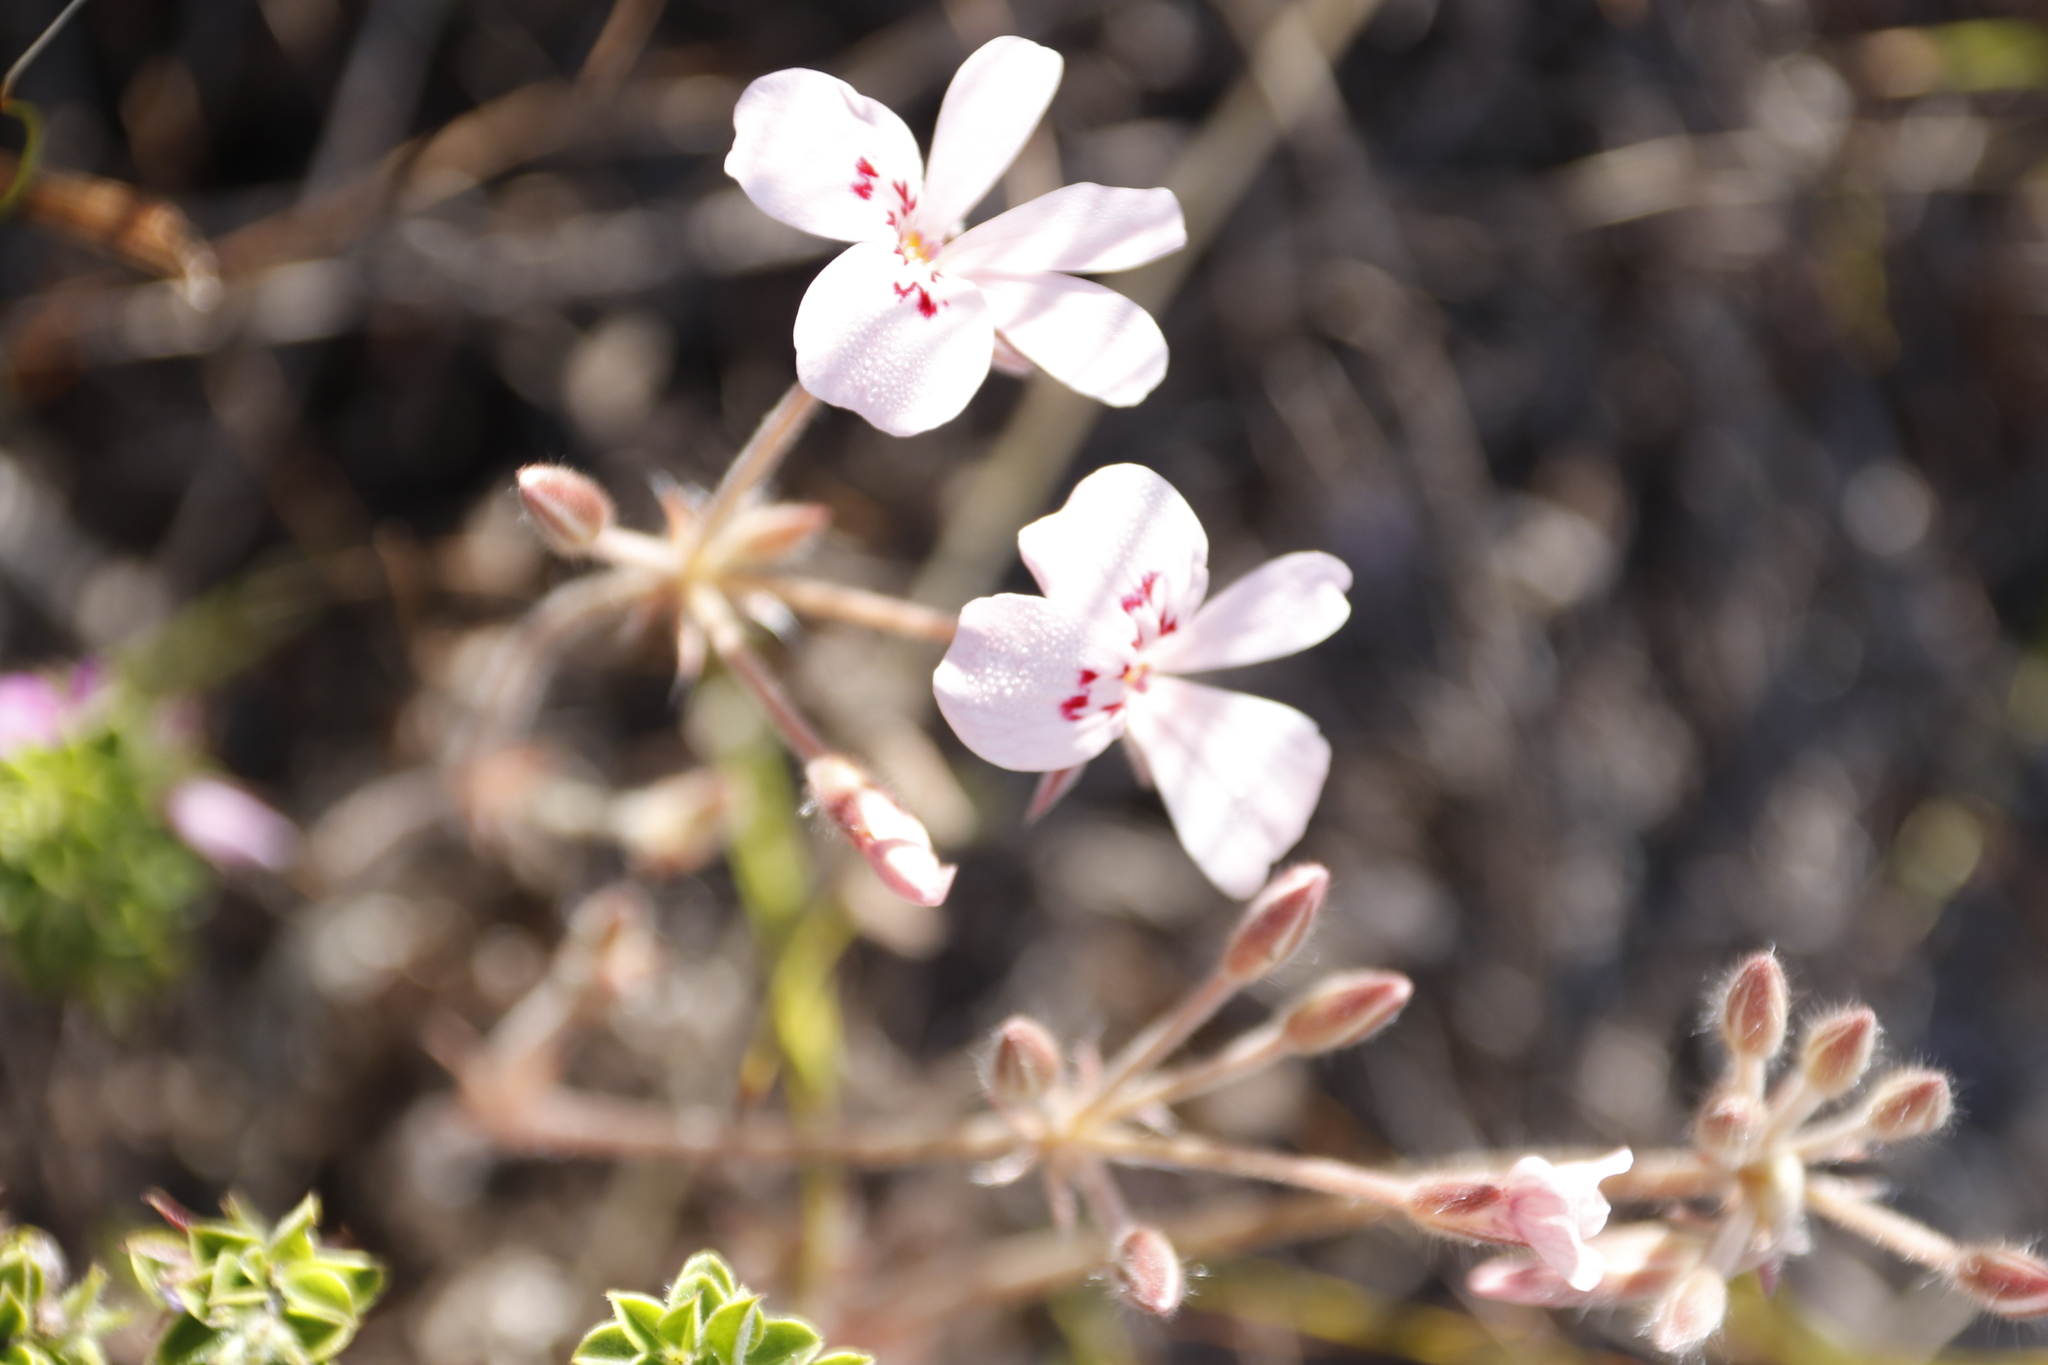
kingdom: Plantae
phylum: Tracheophyta
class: Magnoliopsida
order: Geraniales
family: Geraniaceae
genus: Pelargonium
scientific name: Pelargonium pinnatum
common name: Pinnated pelargonium
